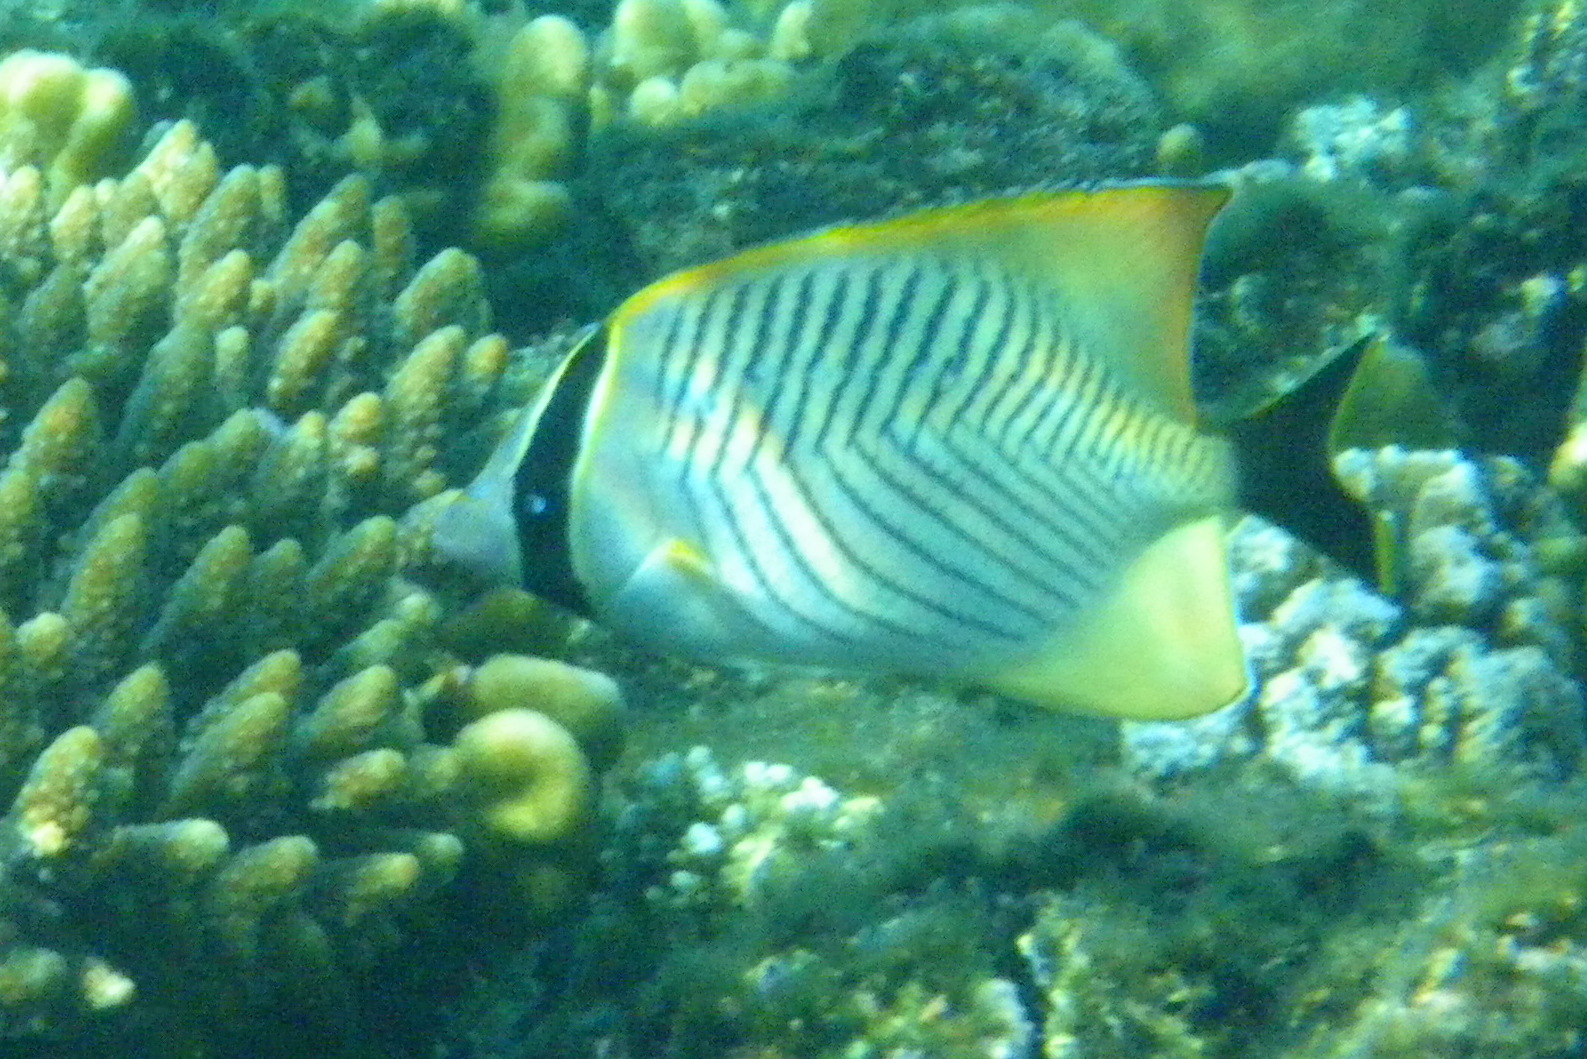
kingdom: Animalia
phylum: Chordata
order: Perciformes
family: Chaetodontidae
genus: Chaetodon
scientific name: Chaetodon trifascialis
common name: Chevroned butterflyfish
